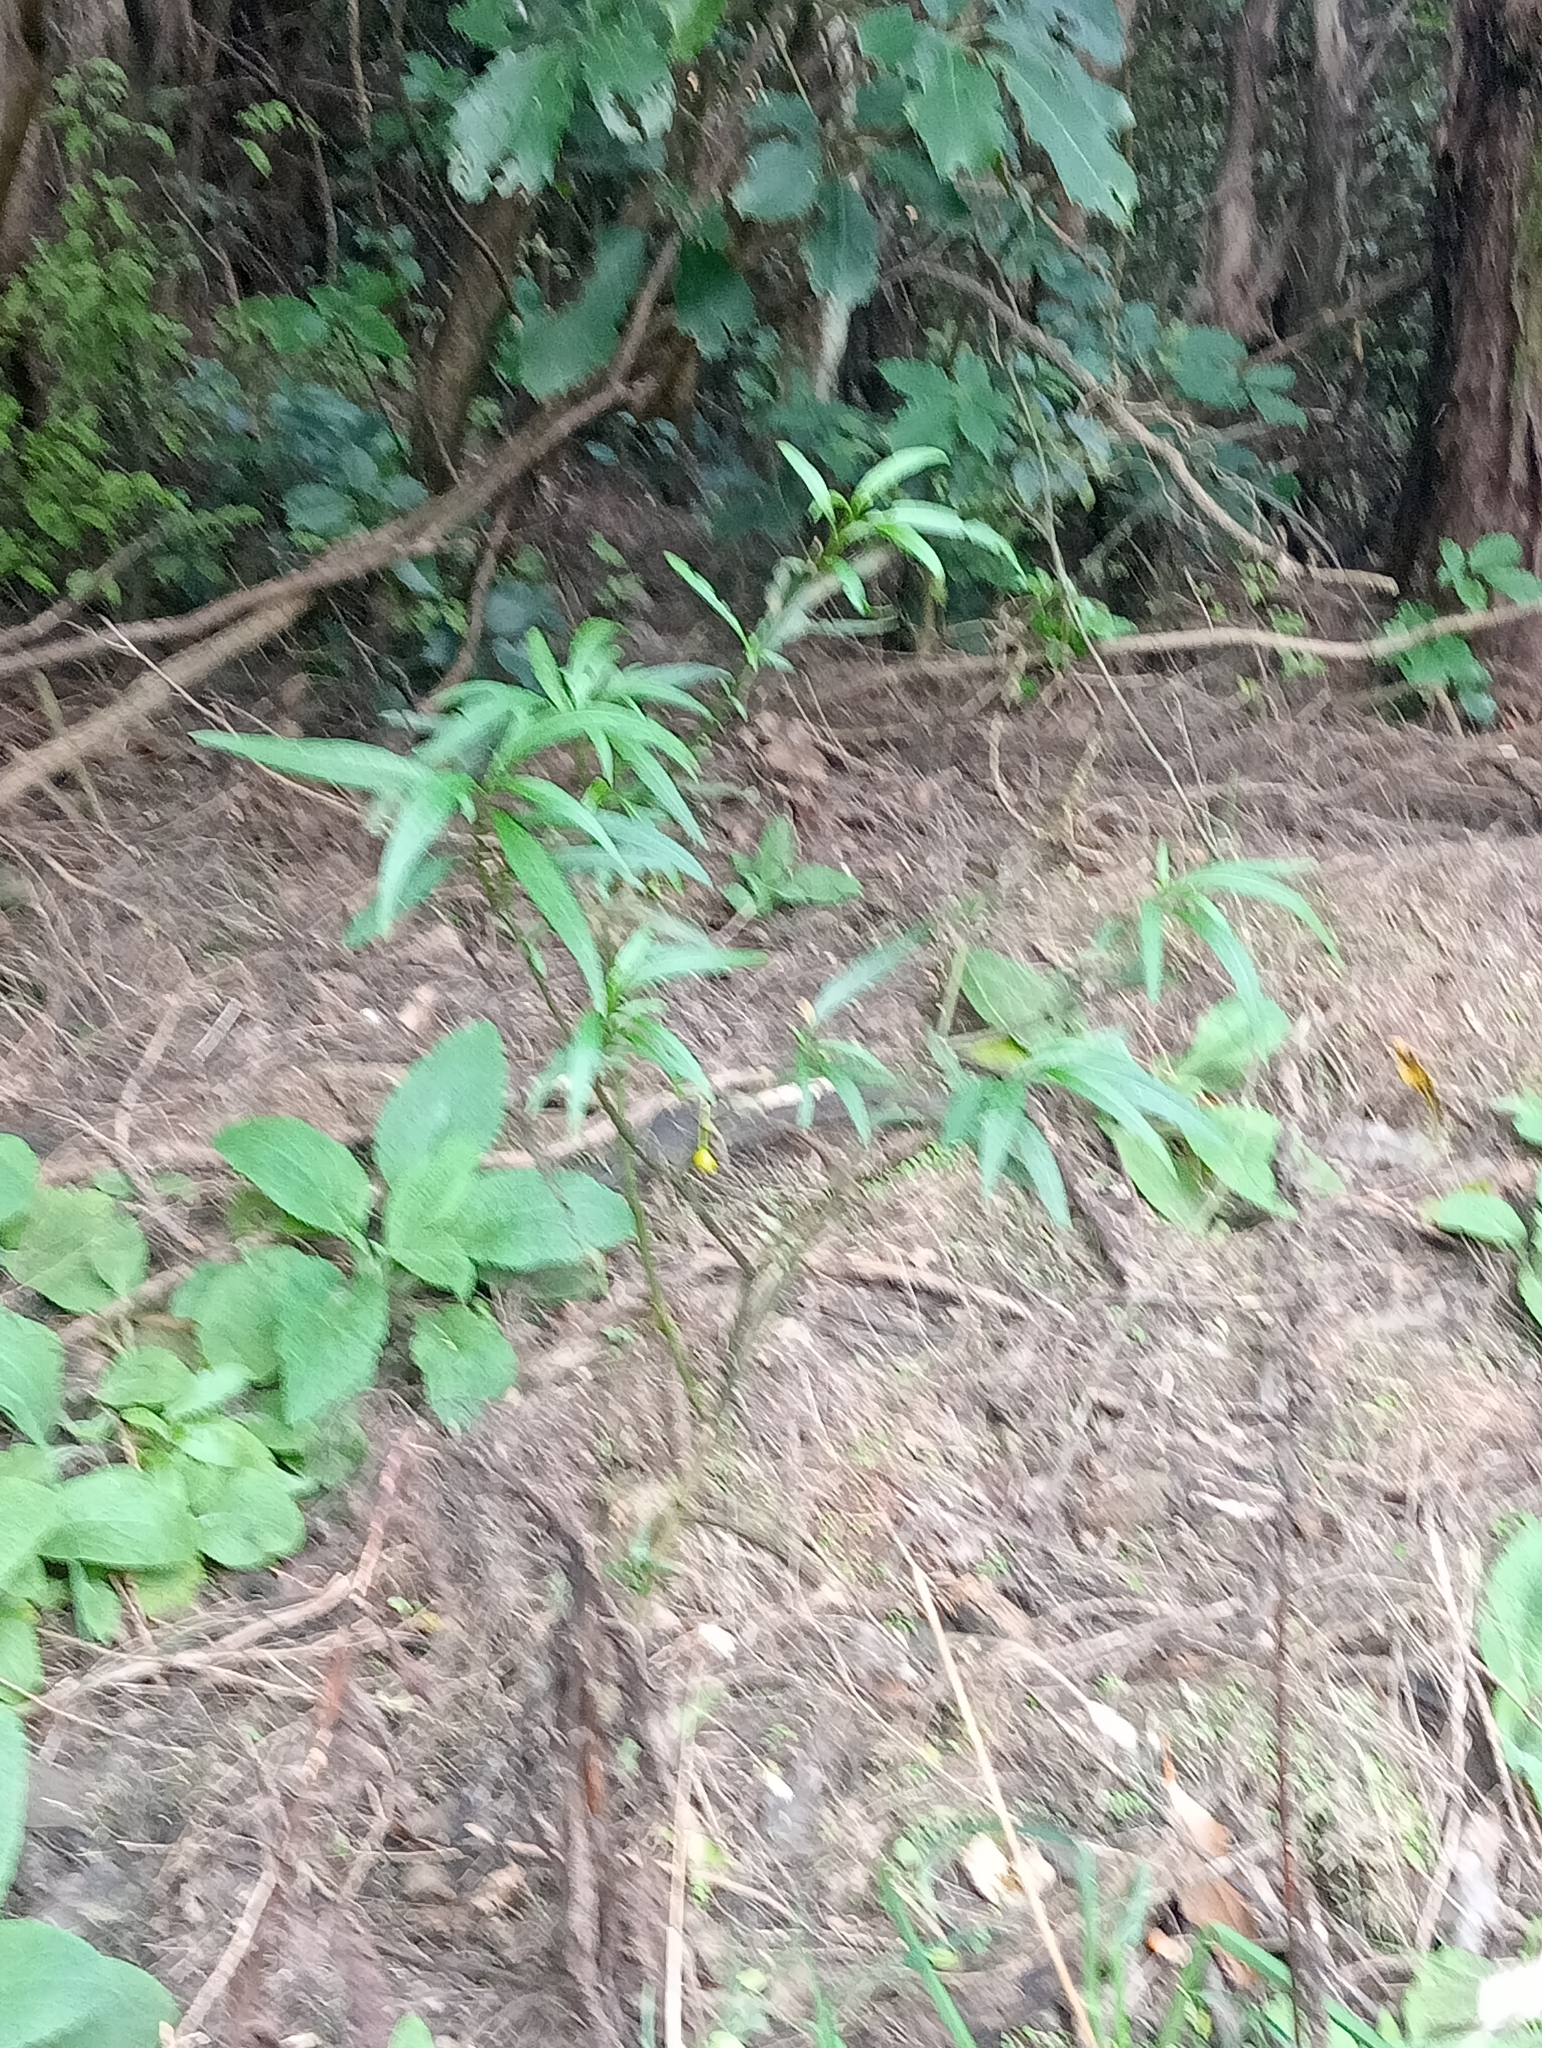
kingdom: Plantae
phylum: Tracheophyta
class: Magnoliopsida
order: Solanales
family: Solanaceae
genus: Solanum
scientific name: Solanum laciniatum
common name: Kangaroo-apple
